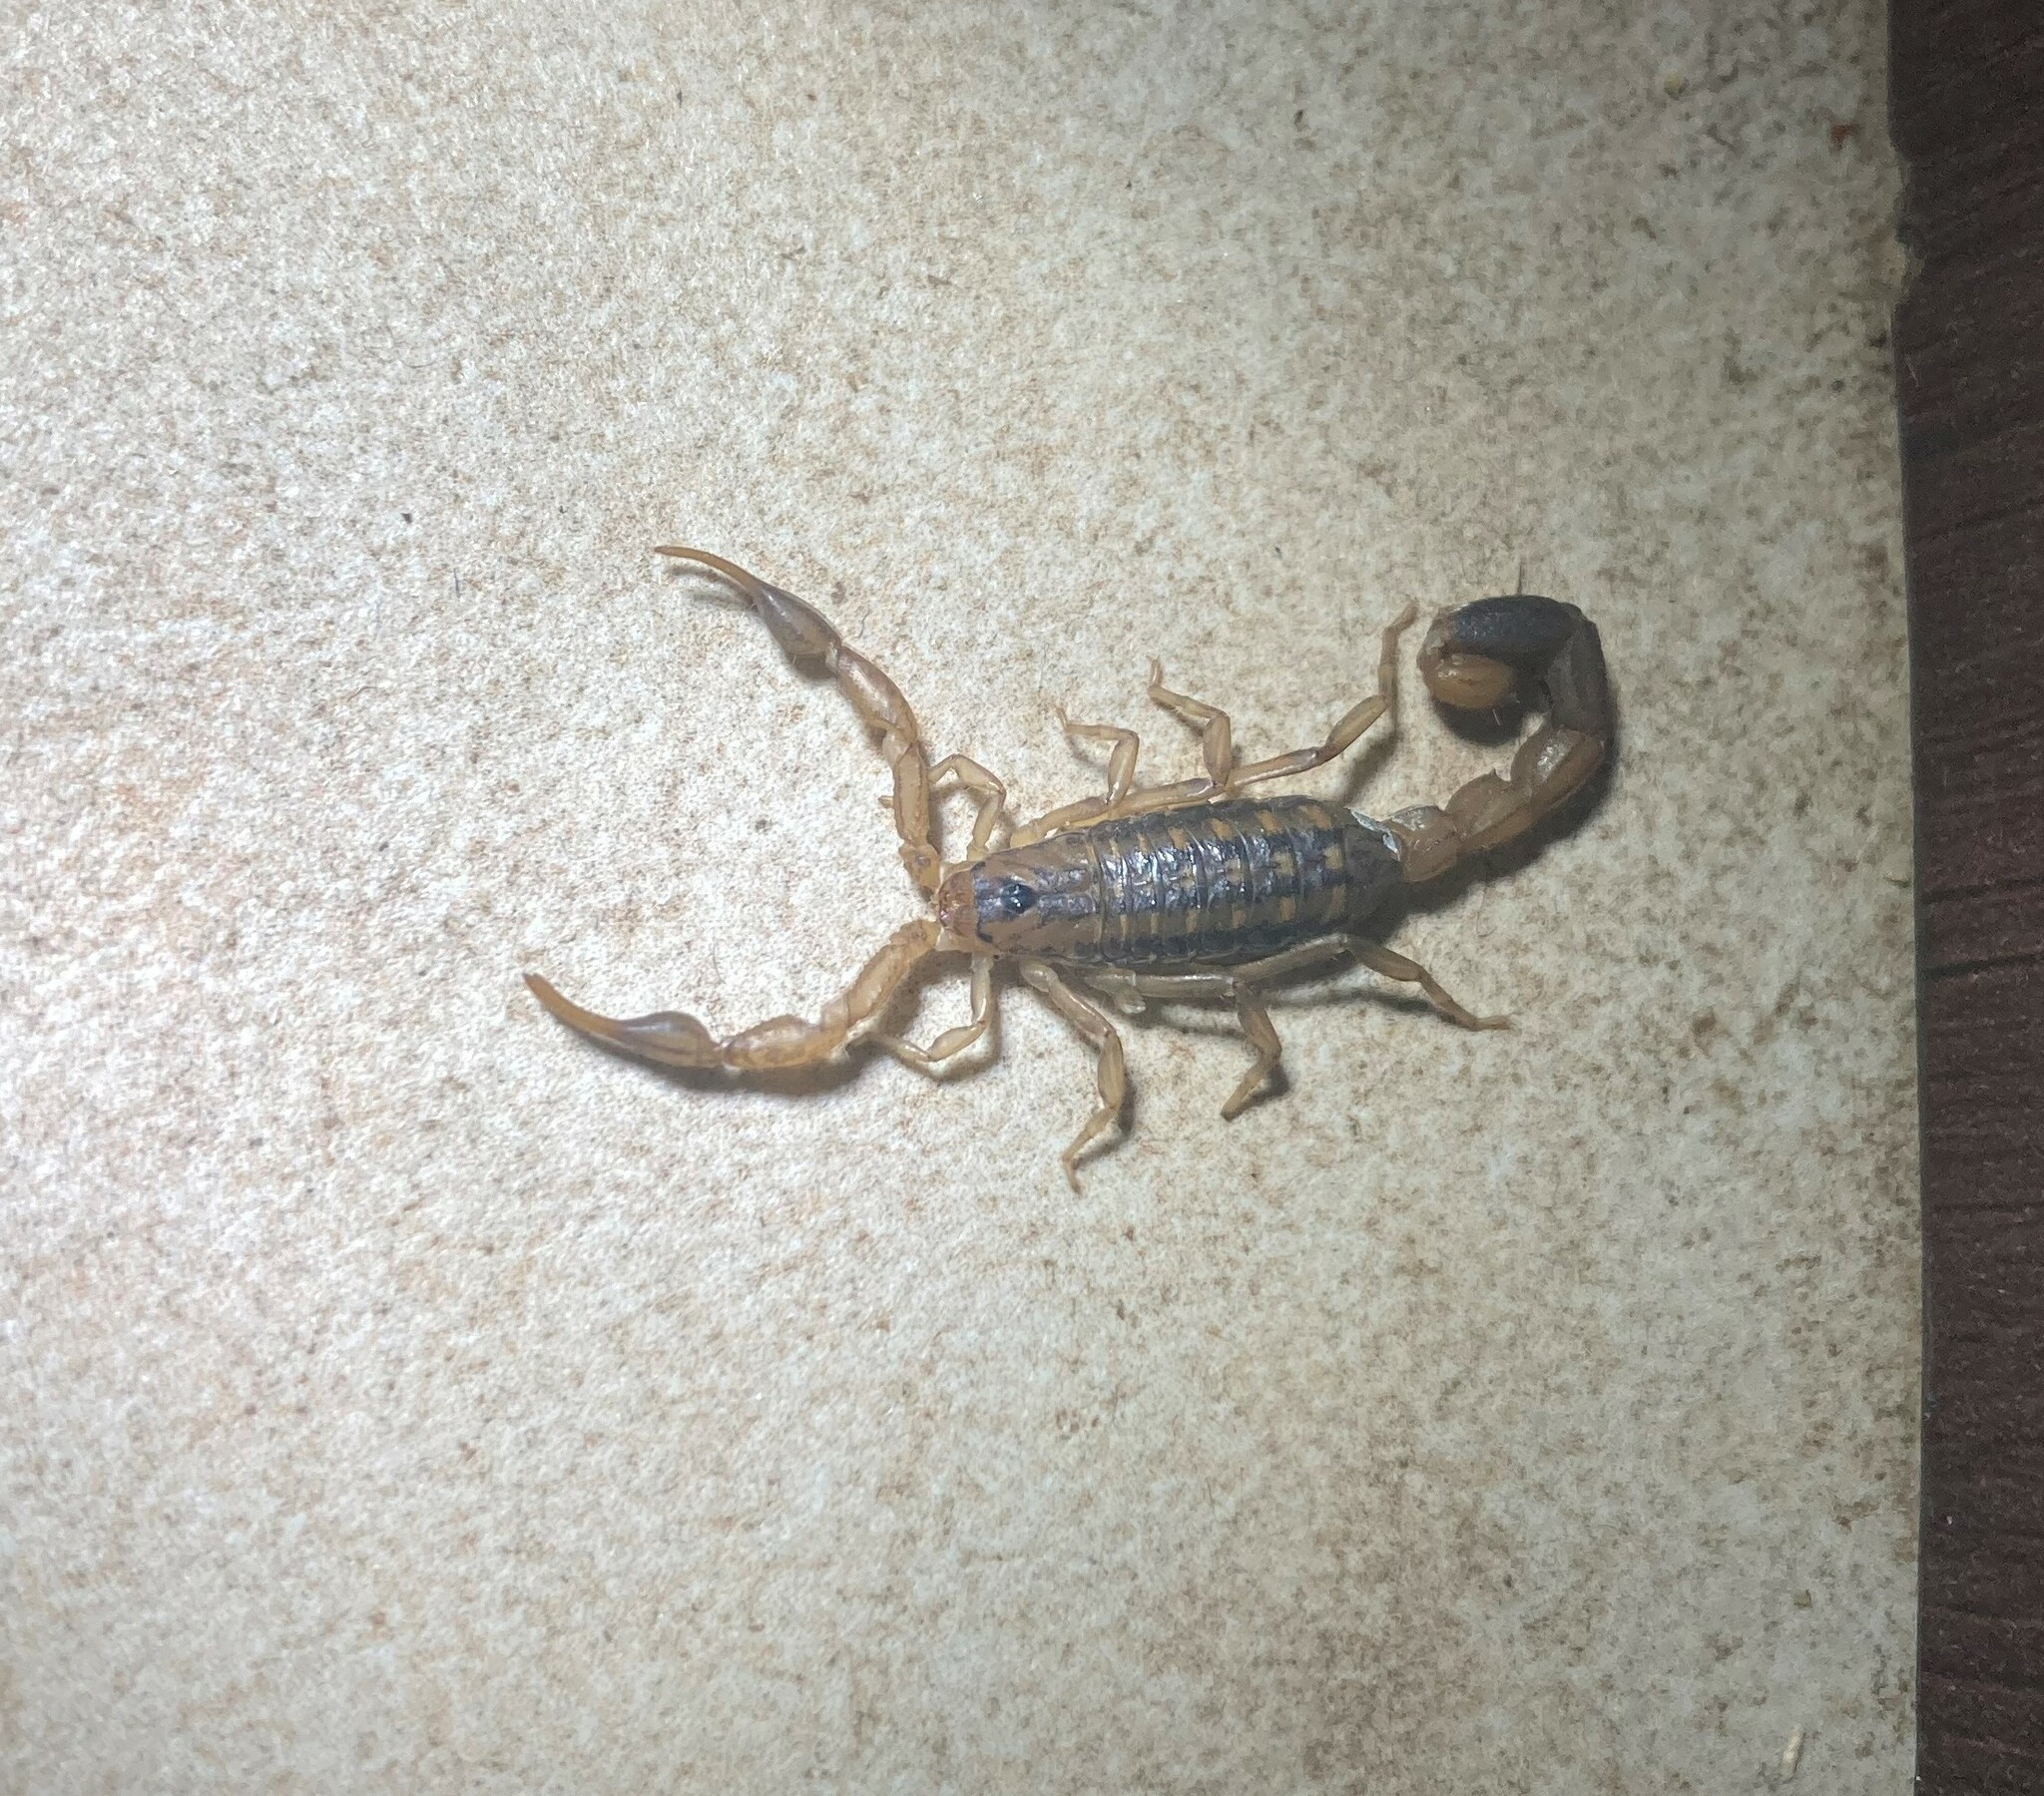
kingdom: Animalia
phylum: Arthropoda
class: Arachnida
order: Scorpiones
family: Buthidae
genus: Uroplectes
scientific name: Uroplectes lineatus
